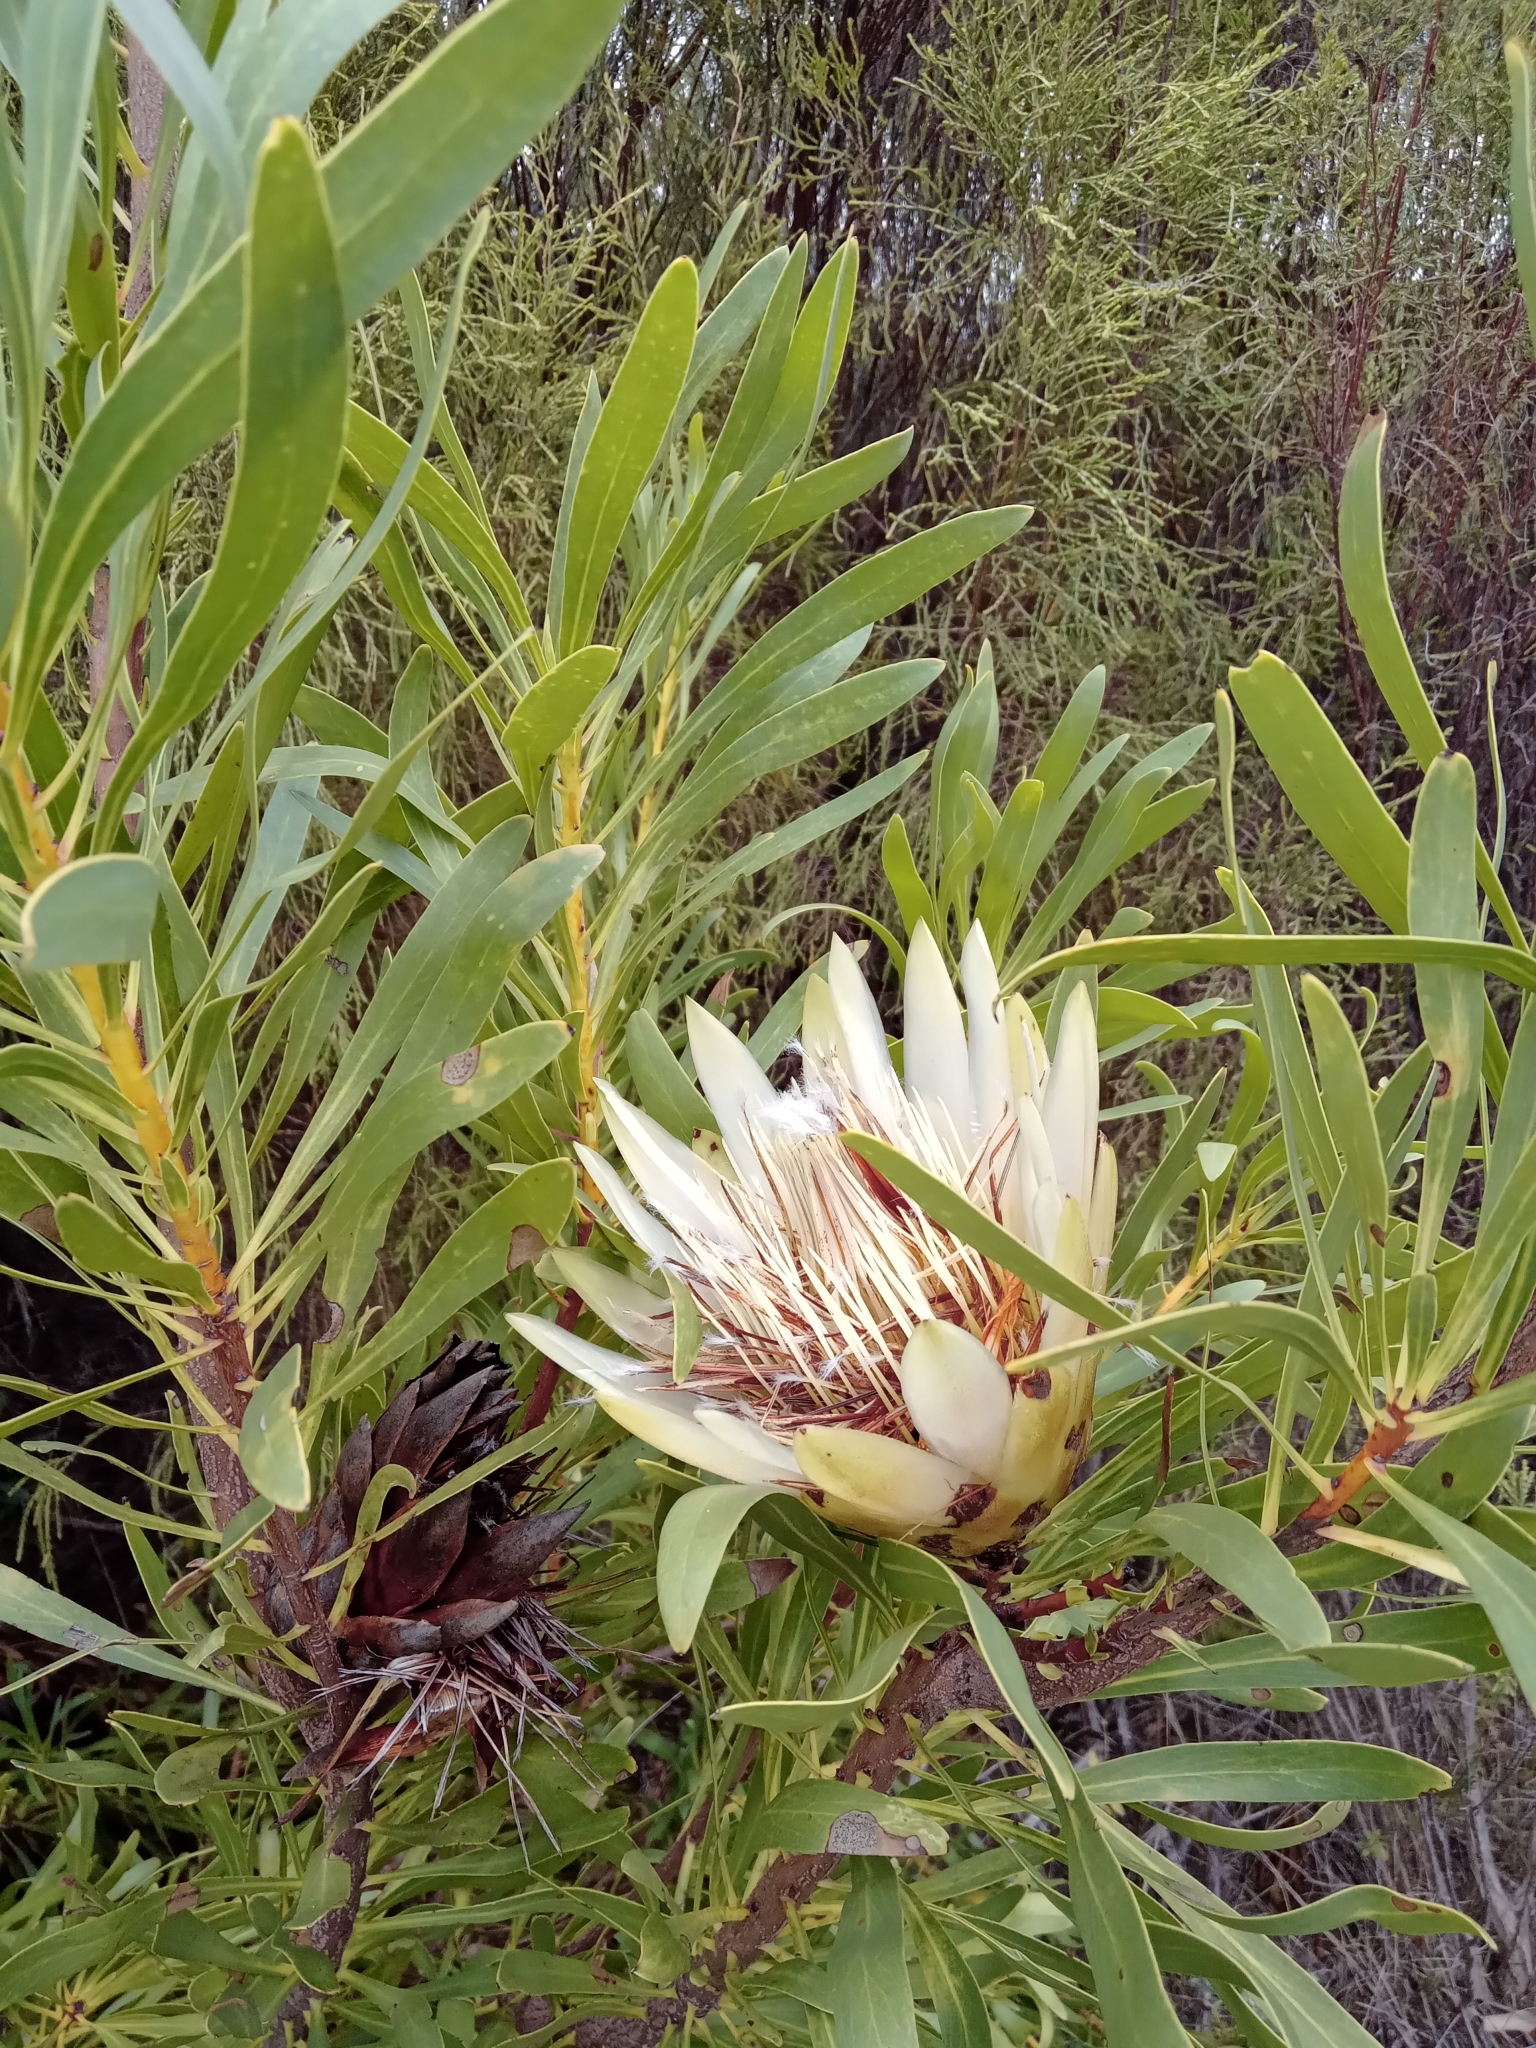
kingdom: Plantae
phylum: Tracheophyta
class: Magnoliopsida
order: Proteales
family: Proteaceae
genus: Protea
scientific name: Protea repens
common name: Sugarbush
